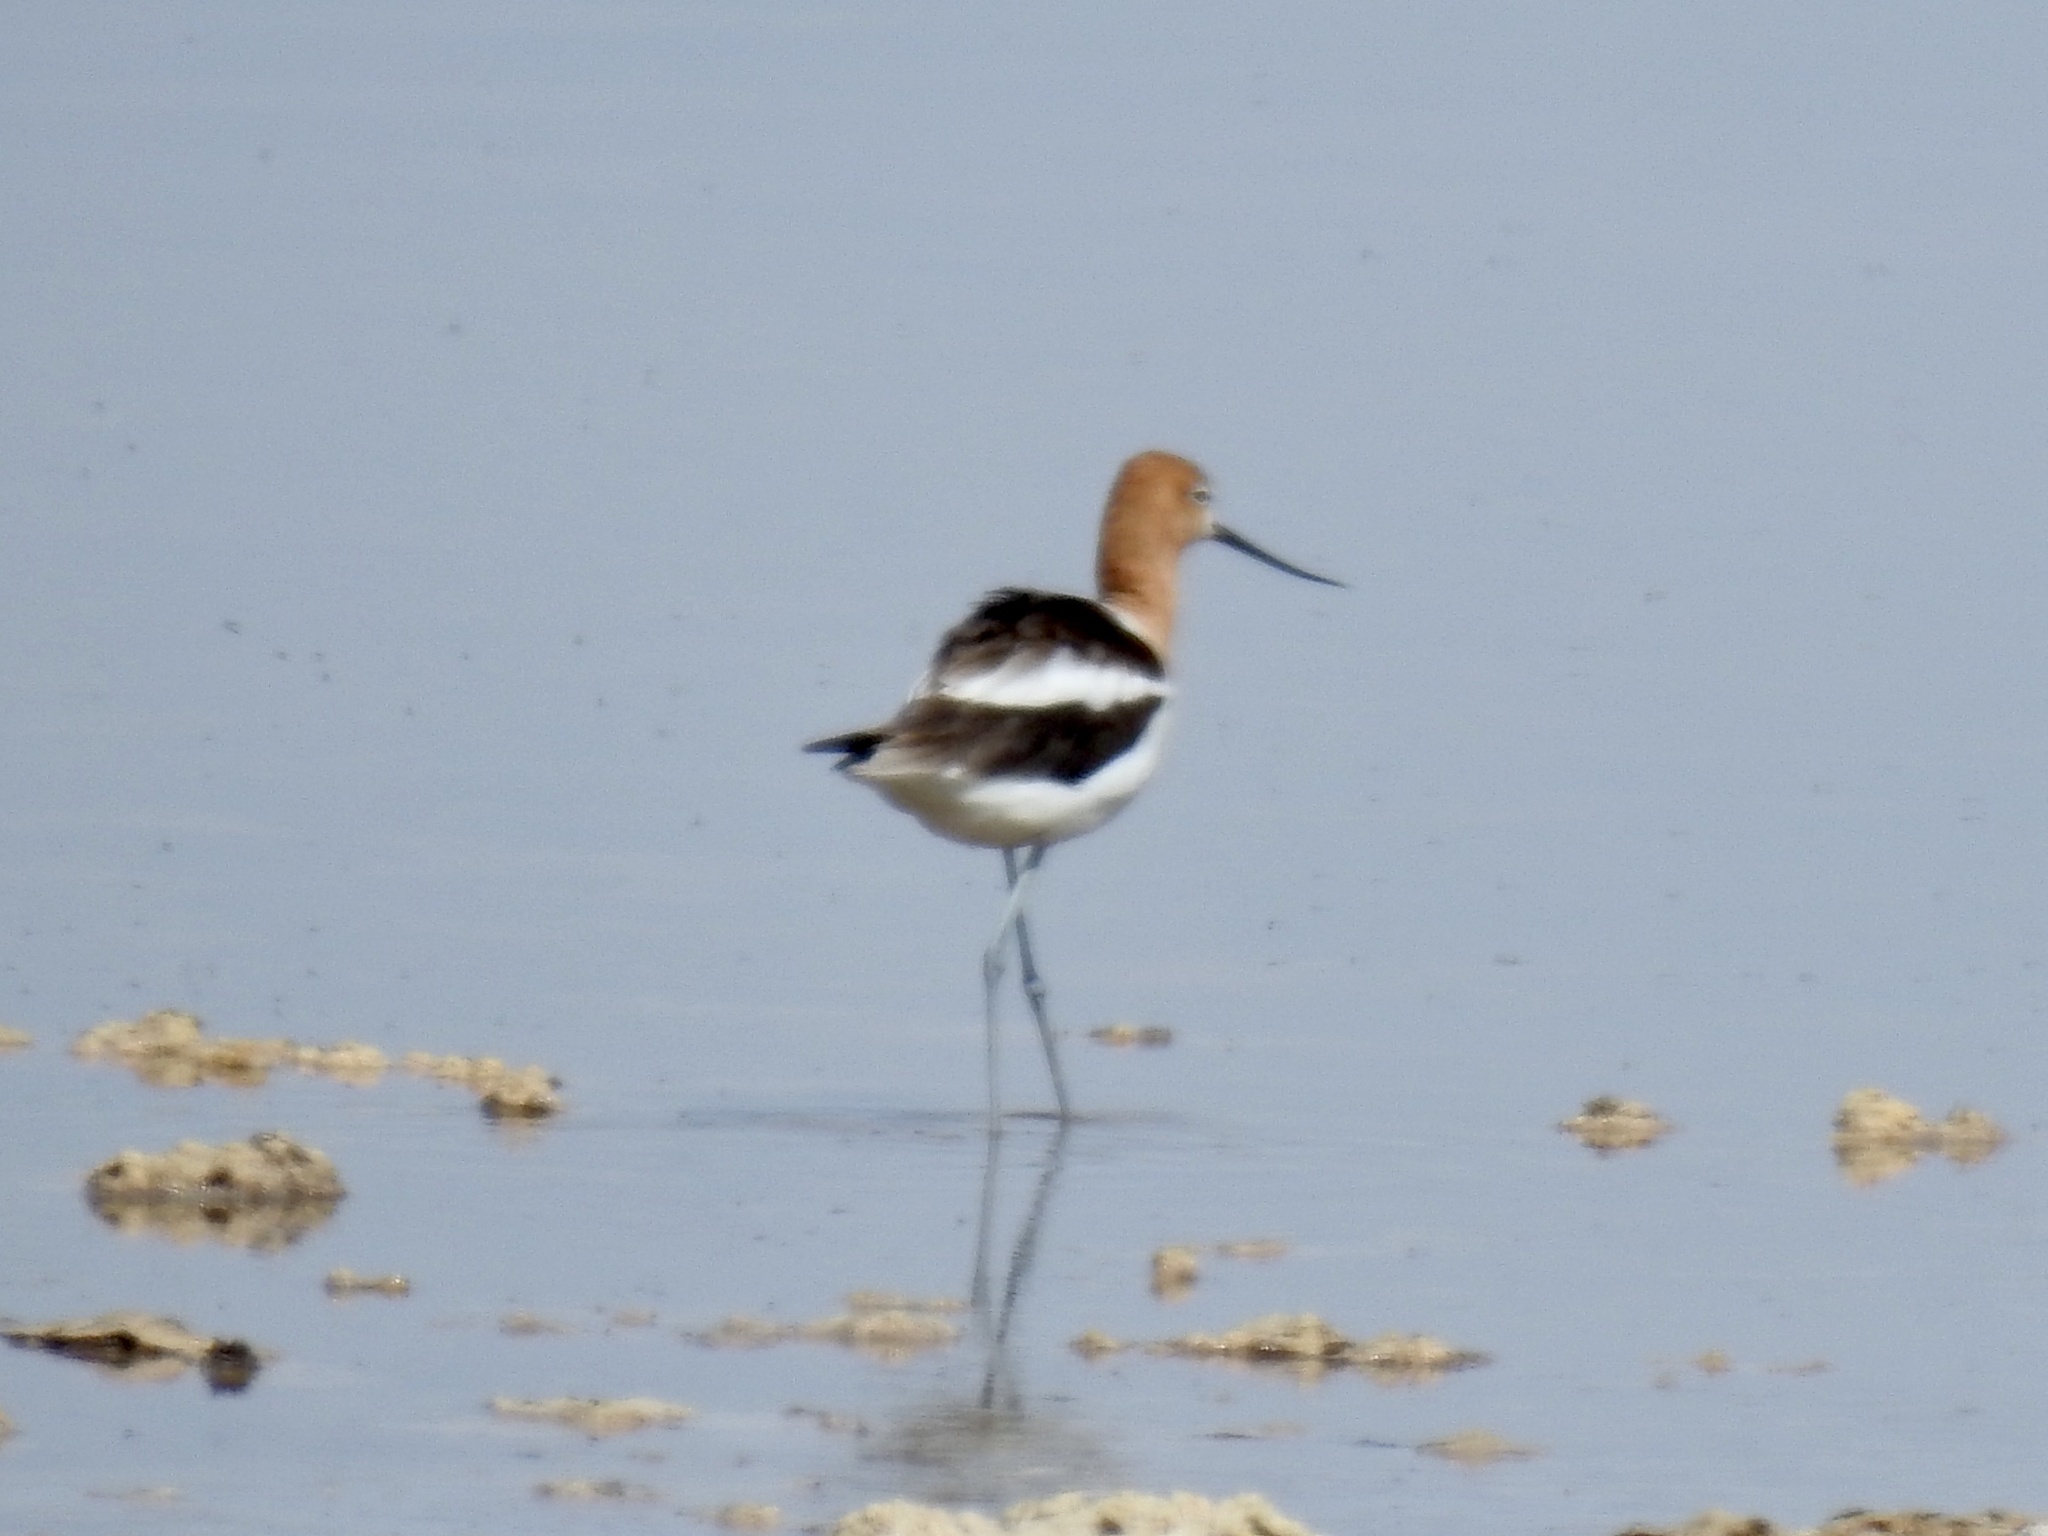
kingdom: Animalia
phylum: Chordata
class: Aves
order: Charadriiformes
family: Recurvirostridae
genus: Recurvirostra
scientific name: Recurvirostra americana
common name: American avocet
